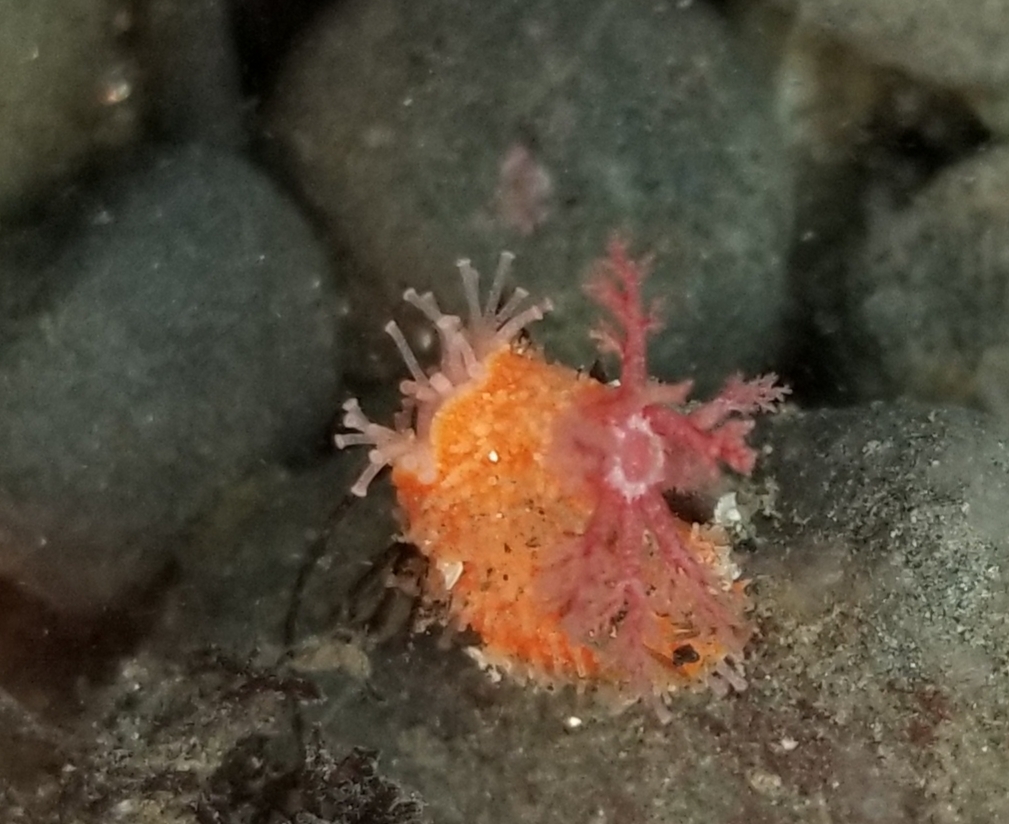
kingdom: Animalia
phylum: Echinodermata
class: Holothuroidea
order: Dendrochirotida
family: Psolidae
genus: Lissothuria
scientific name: Lissothuria nutriens
